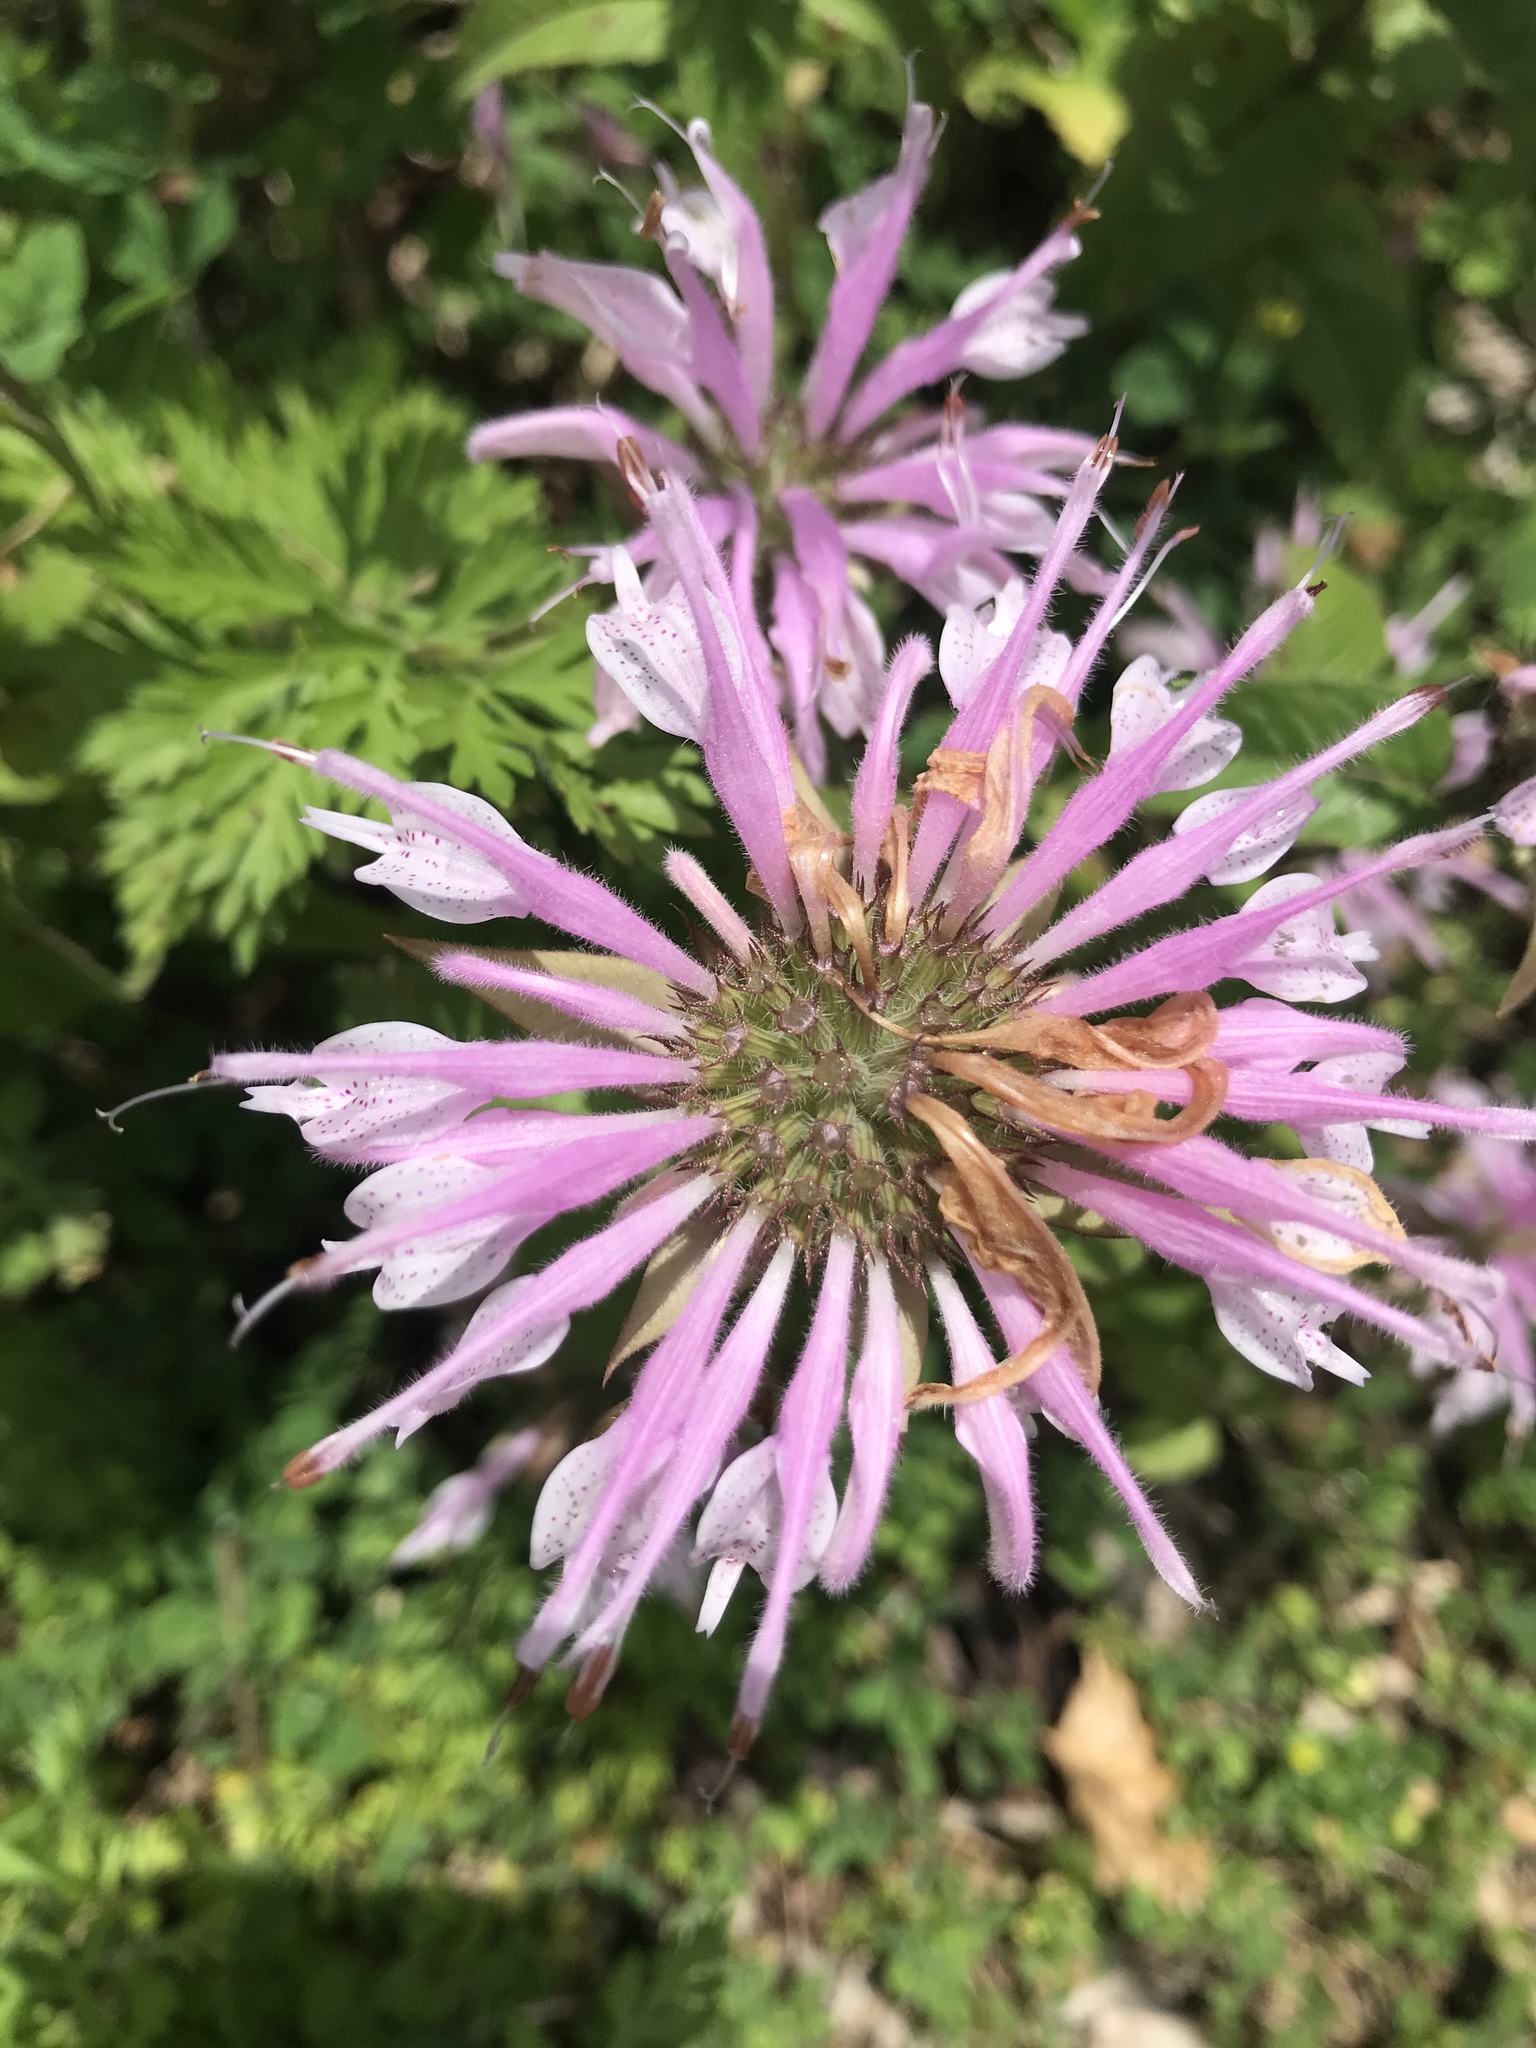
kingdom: Plantae
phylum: Tracheophyta
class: Magnoliopsida
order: Lamiales
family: Lamiaceae
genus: Monarda
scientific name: Monarda fistulosa
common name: Purple beebalm
